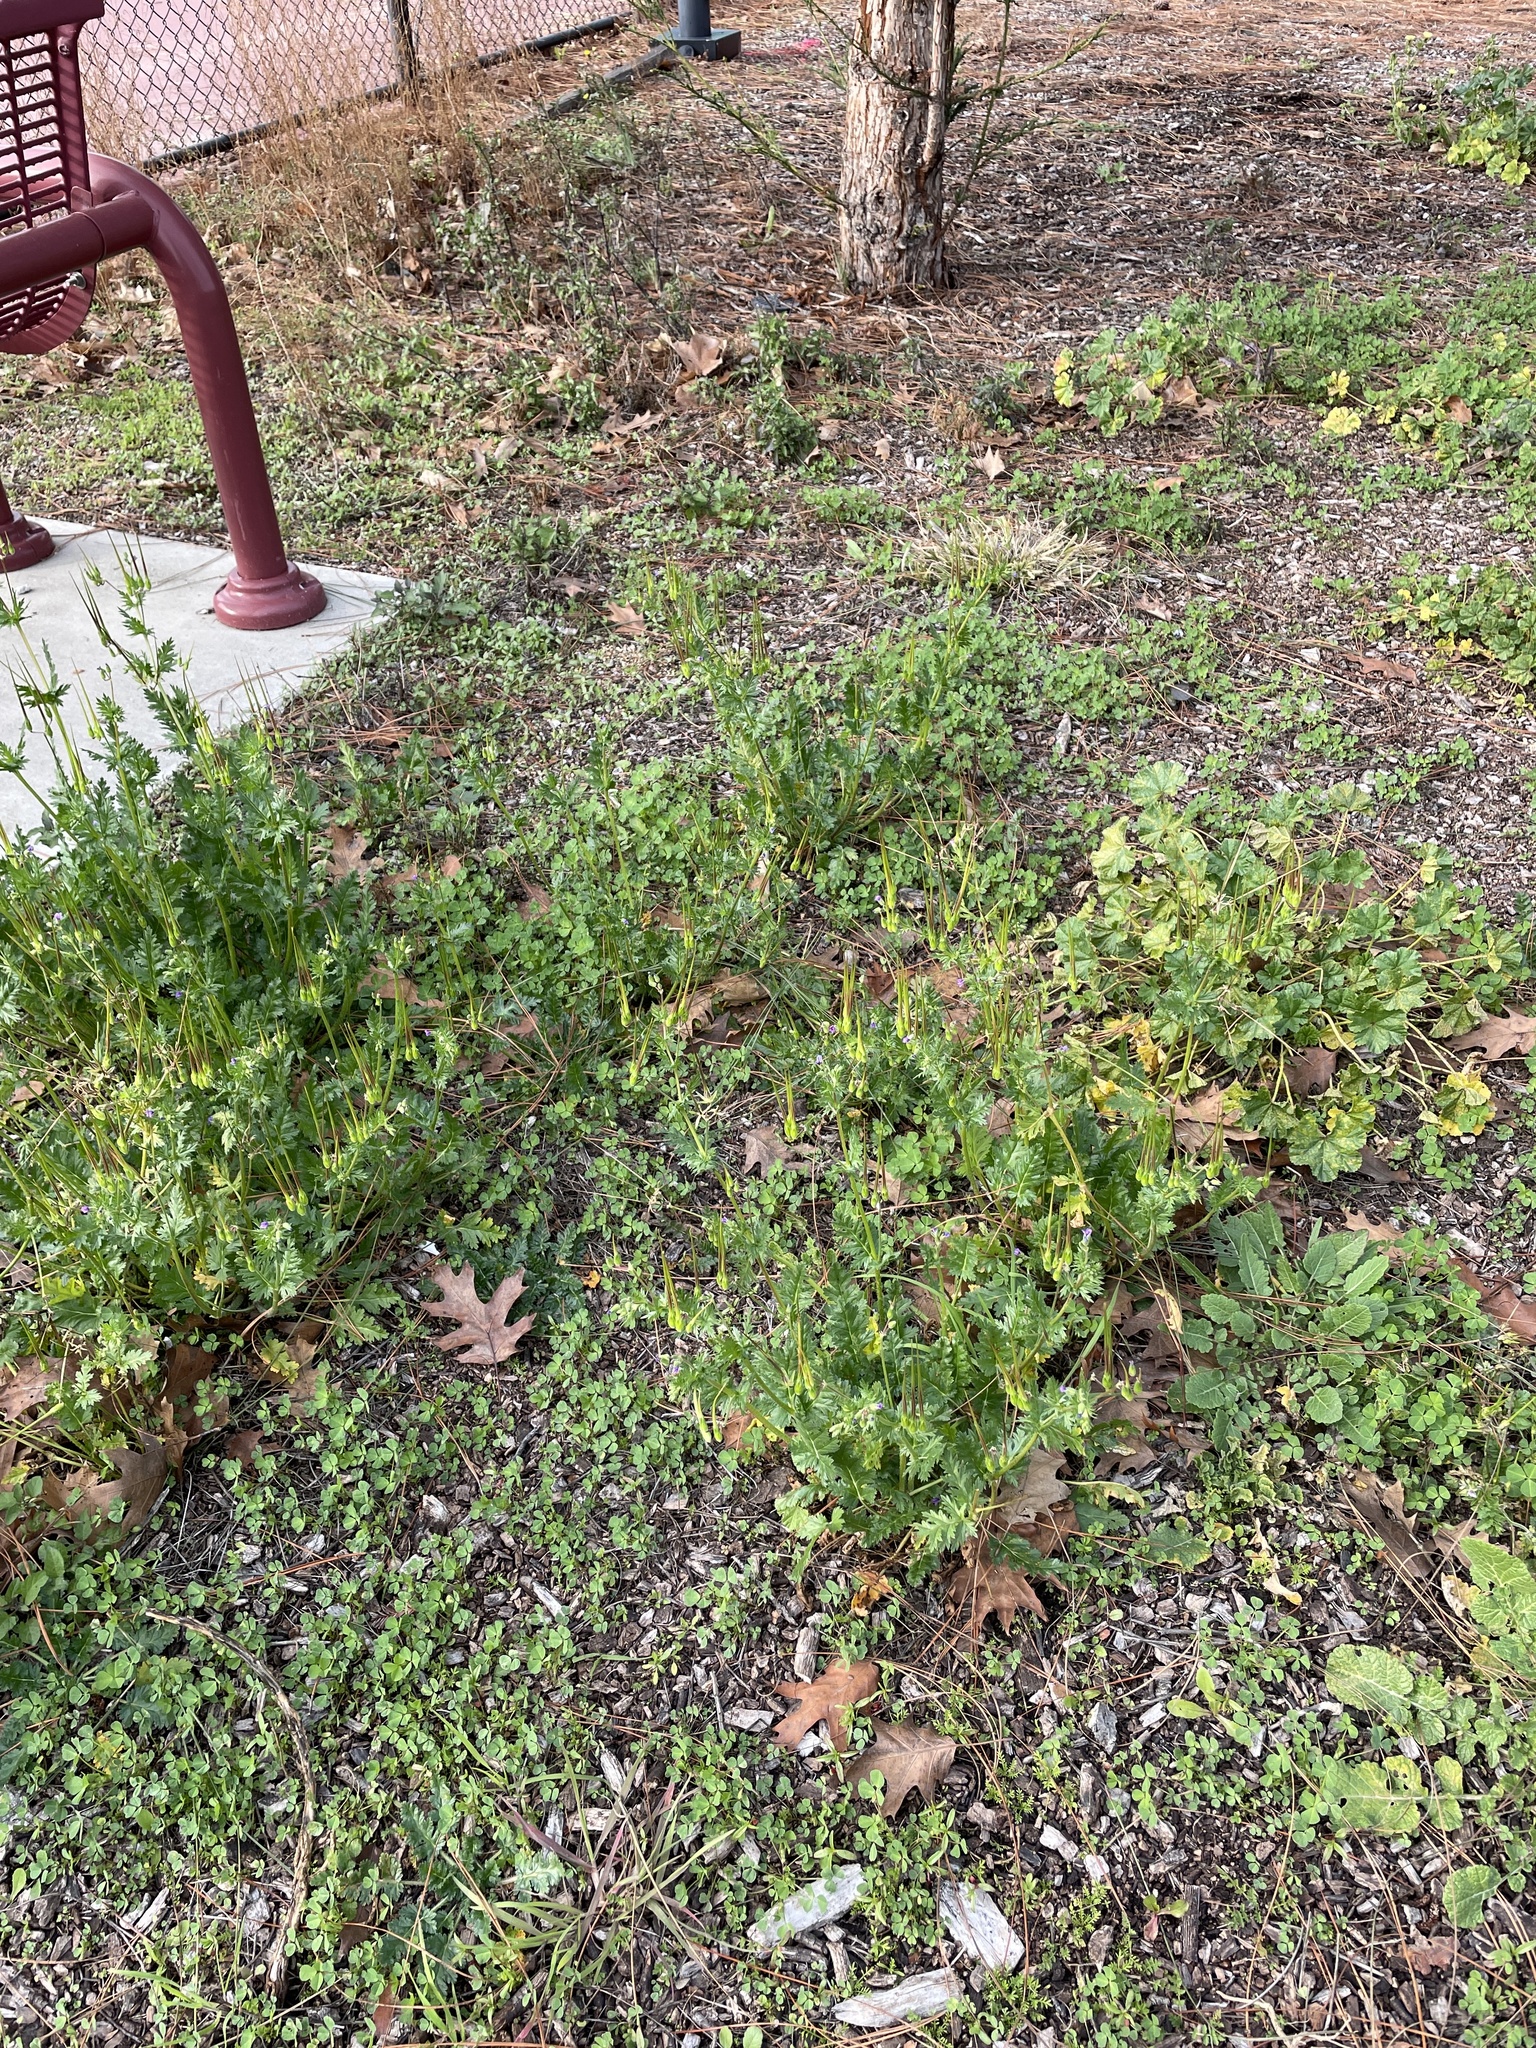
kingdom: Plantae
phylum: Tracheophyta
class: Magnoliopsida
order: Geraniales
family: Geraniaceae
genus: Erodium
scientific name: Erodium brachycarpum
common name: Hairy-pitted stork's-bill
